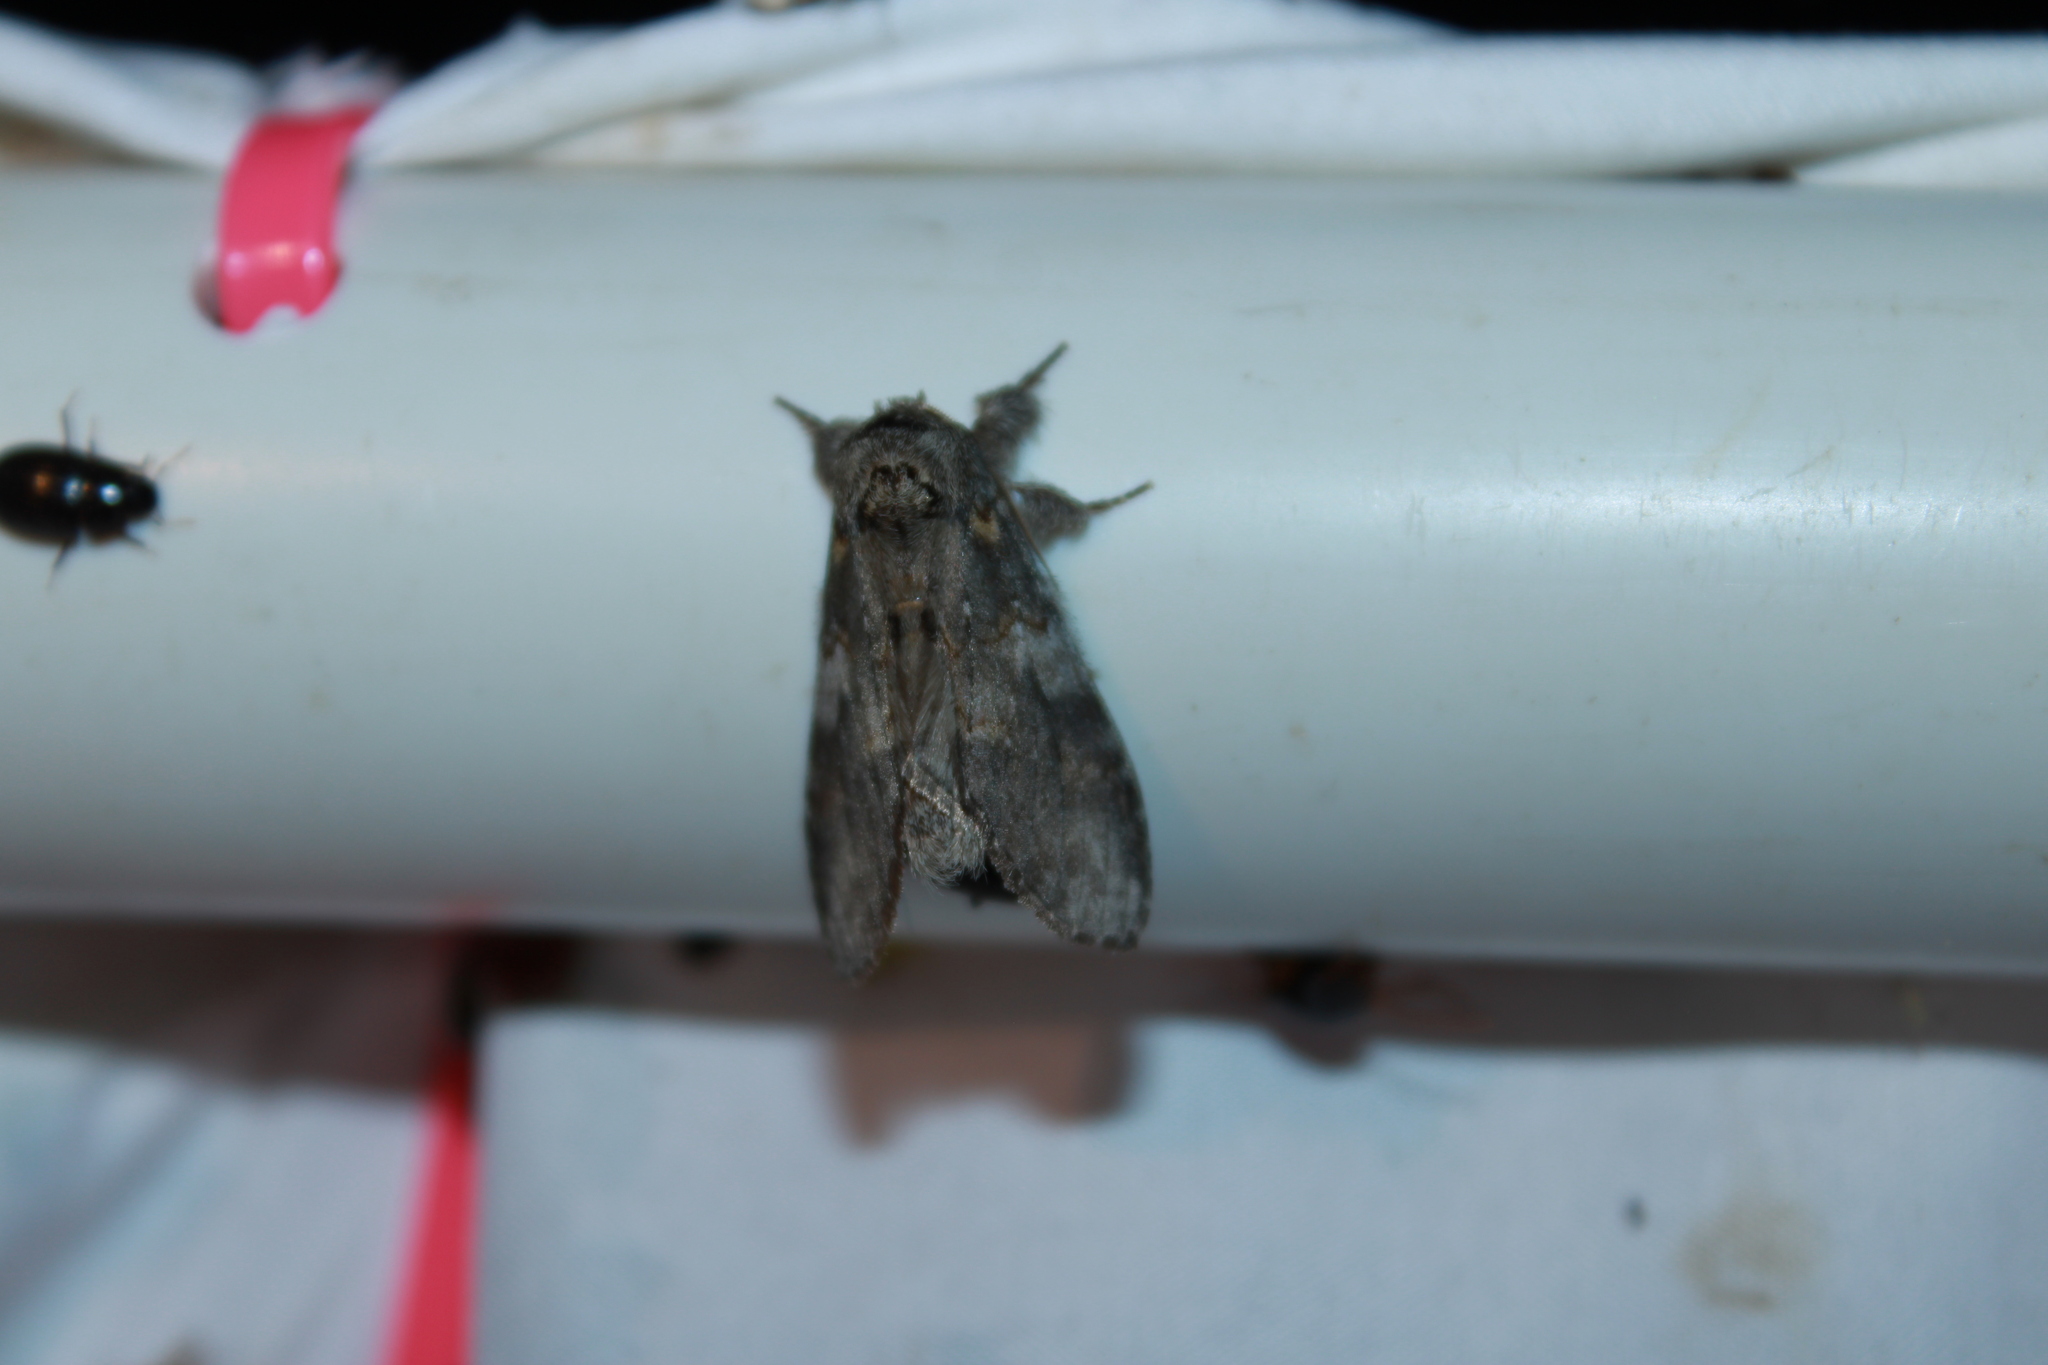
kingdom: Animalia
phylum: Arthropoda
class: Insecta
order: Lepidoptera
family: Notodontidae
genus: Peridea
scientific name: Peridea angulosa
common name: Angulose prominent
